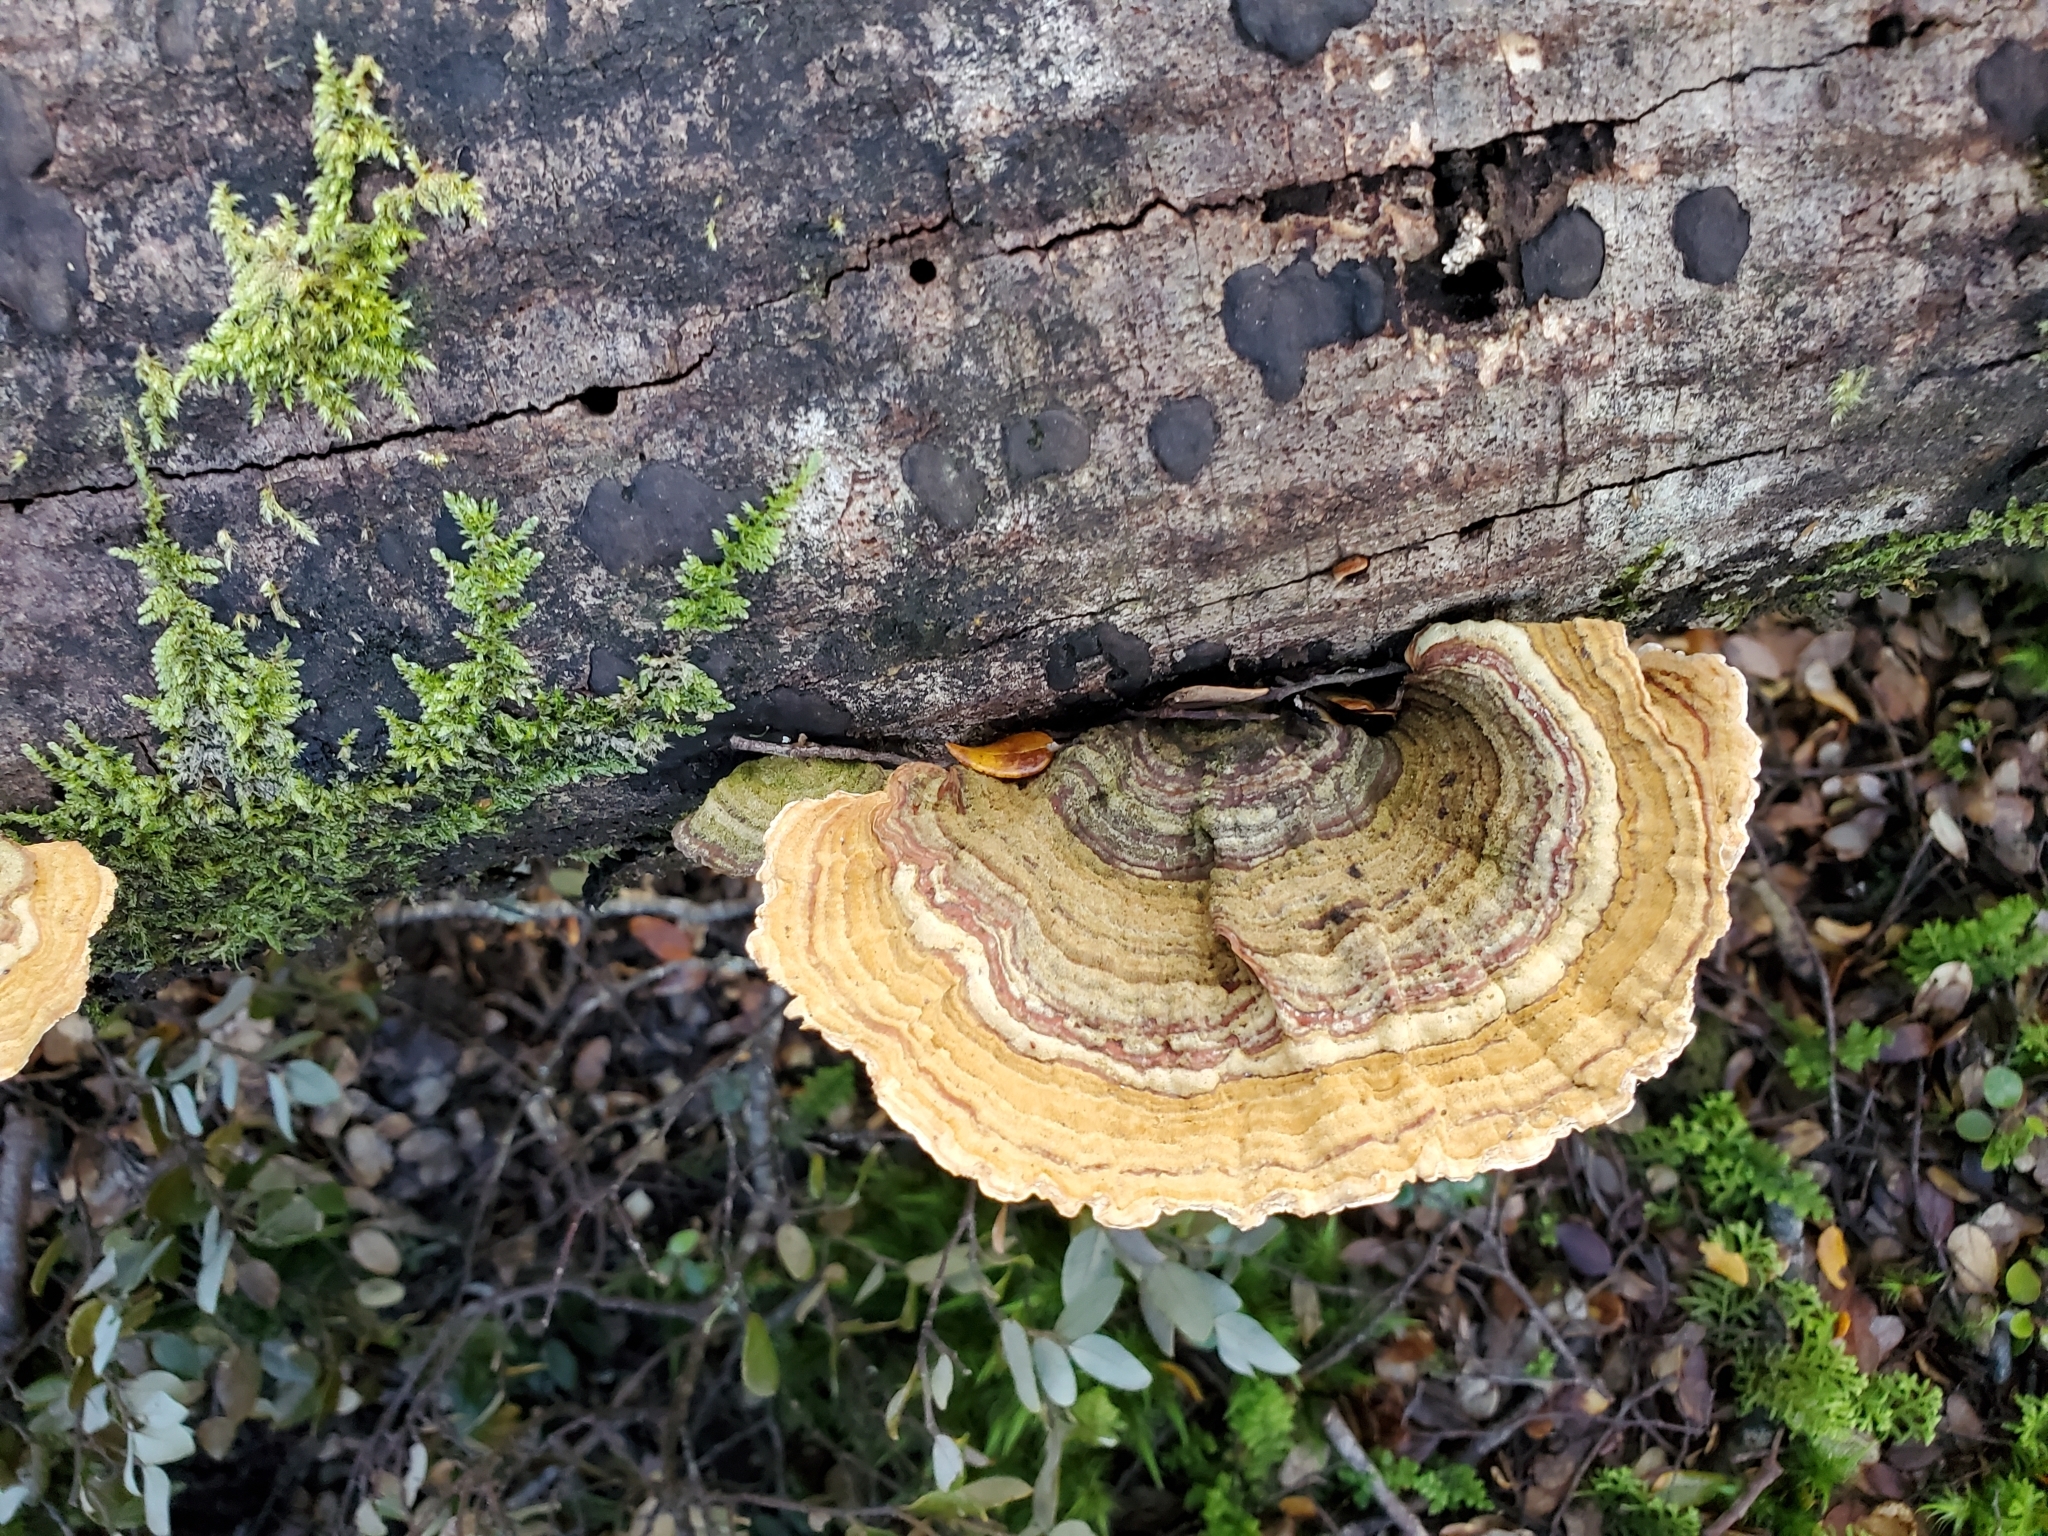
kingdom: Fungi
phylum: Basidiomycota
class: Agaricomycetes
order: Russulales
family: Stereaceae
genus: Stereum
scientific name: Stereum versicolor
